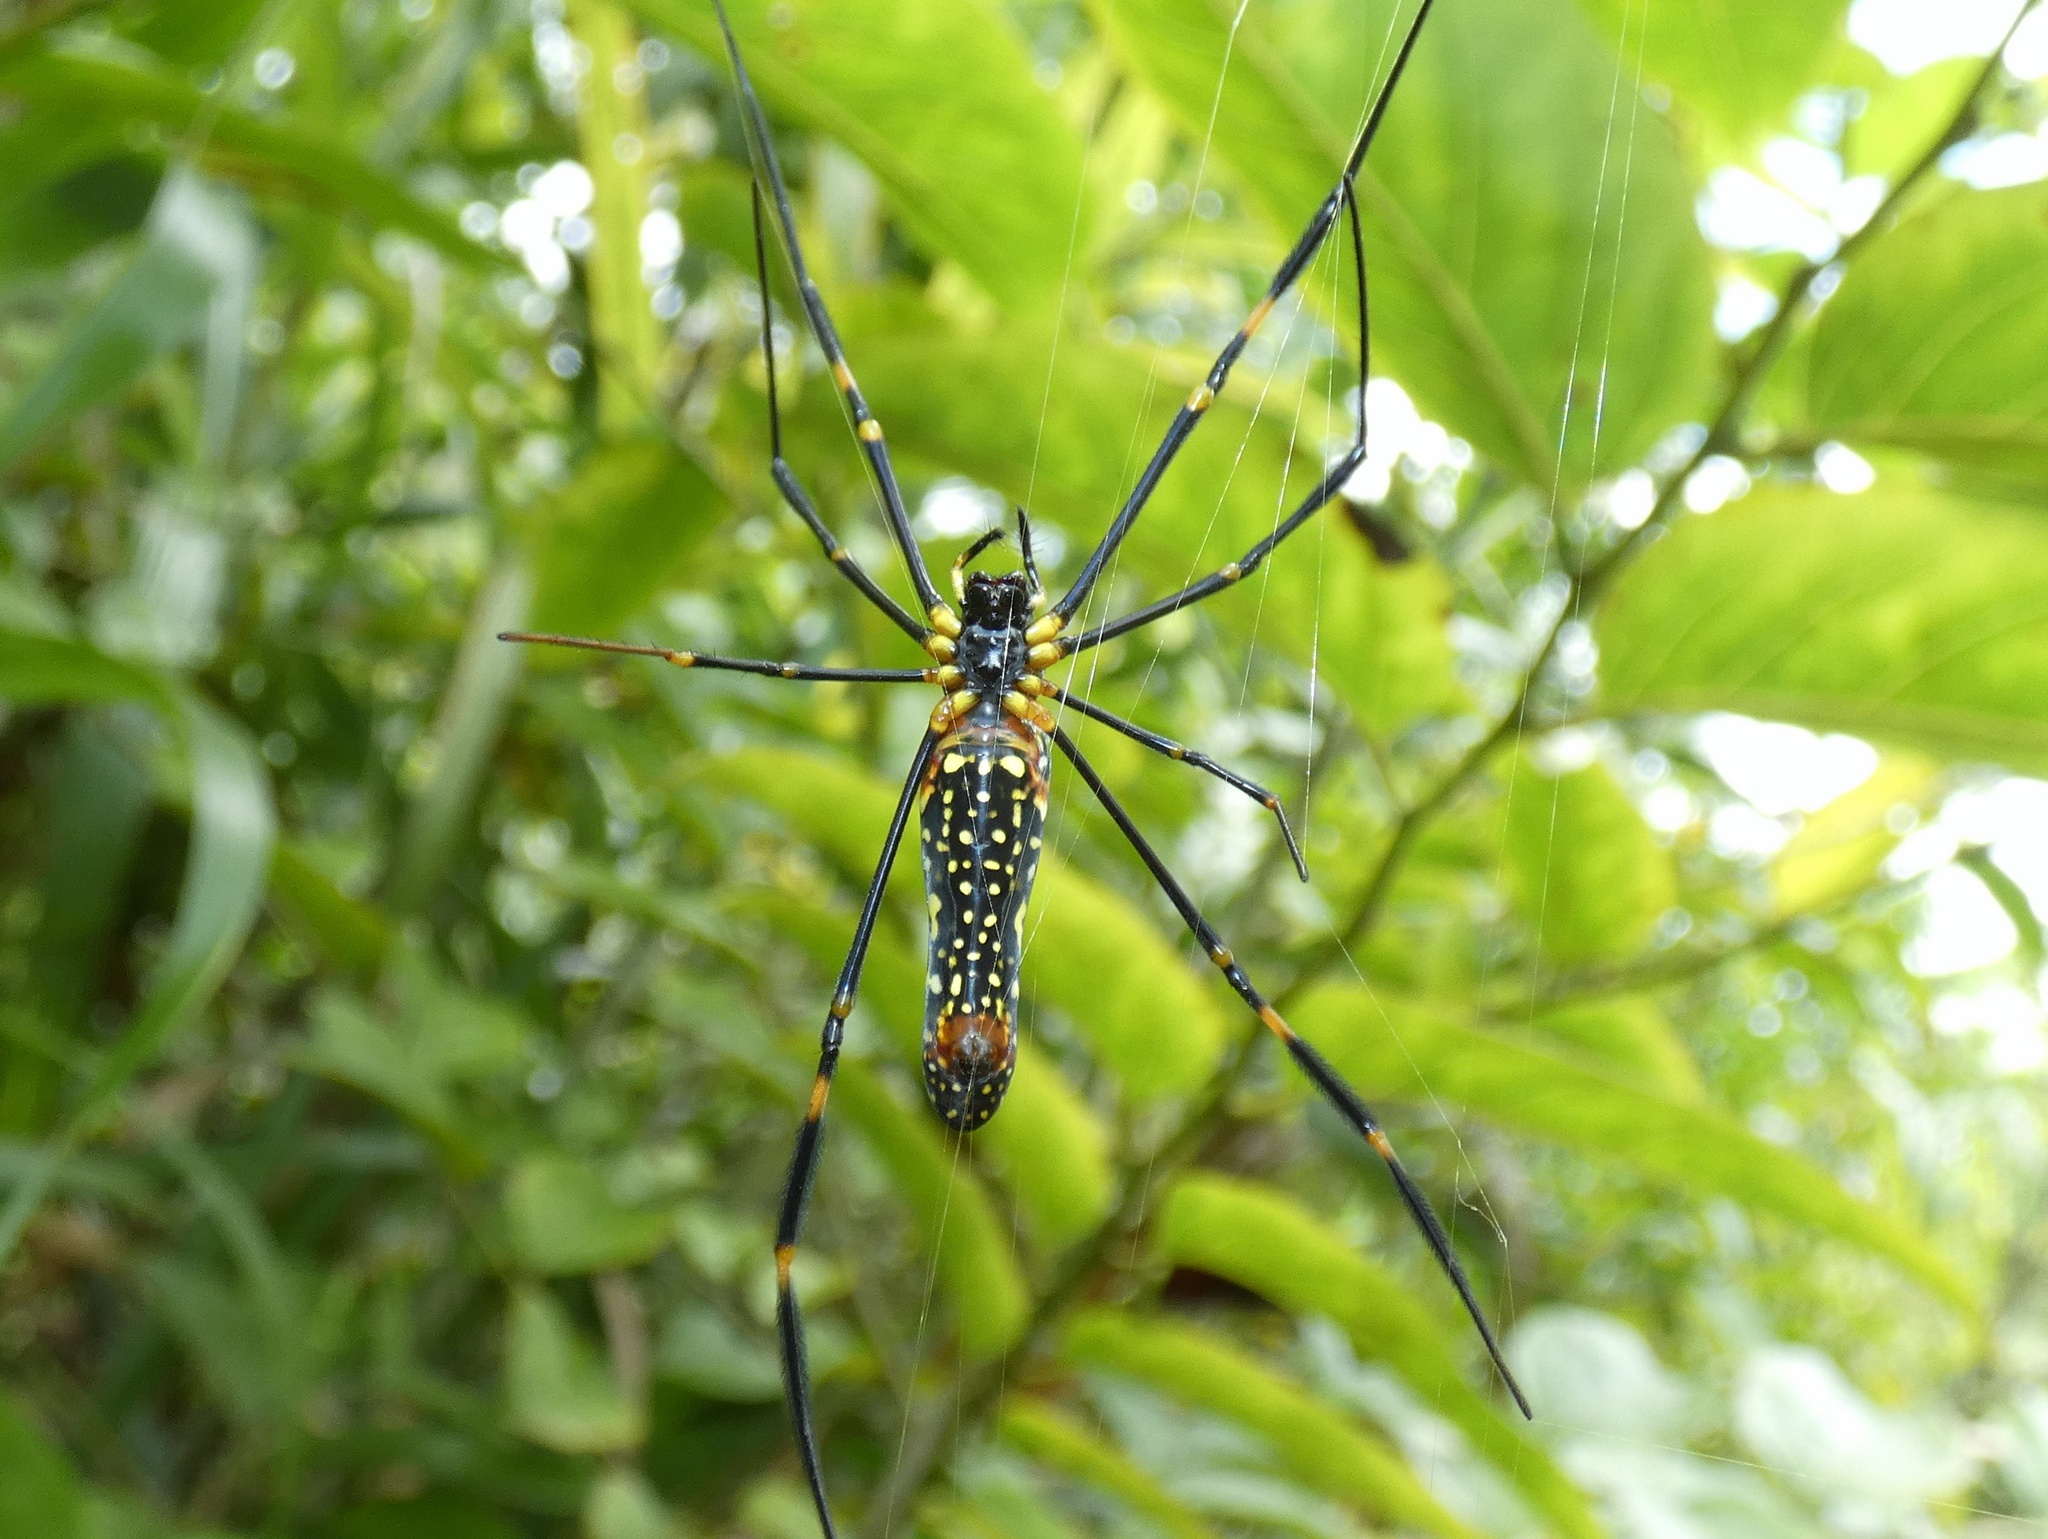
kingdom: Animalia
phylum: Arthropoda
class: Arachnida
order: Araneae
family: Araneidae
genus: Nephila
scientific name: Nephila pilipes
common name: Giant golden orb weaver
